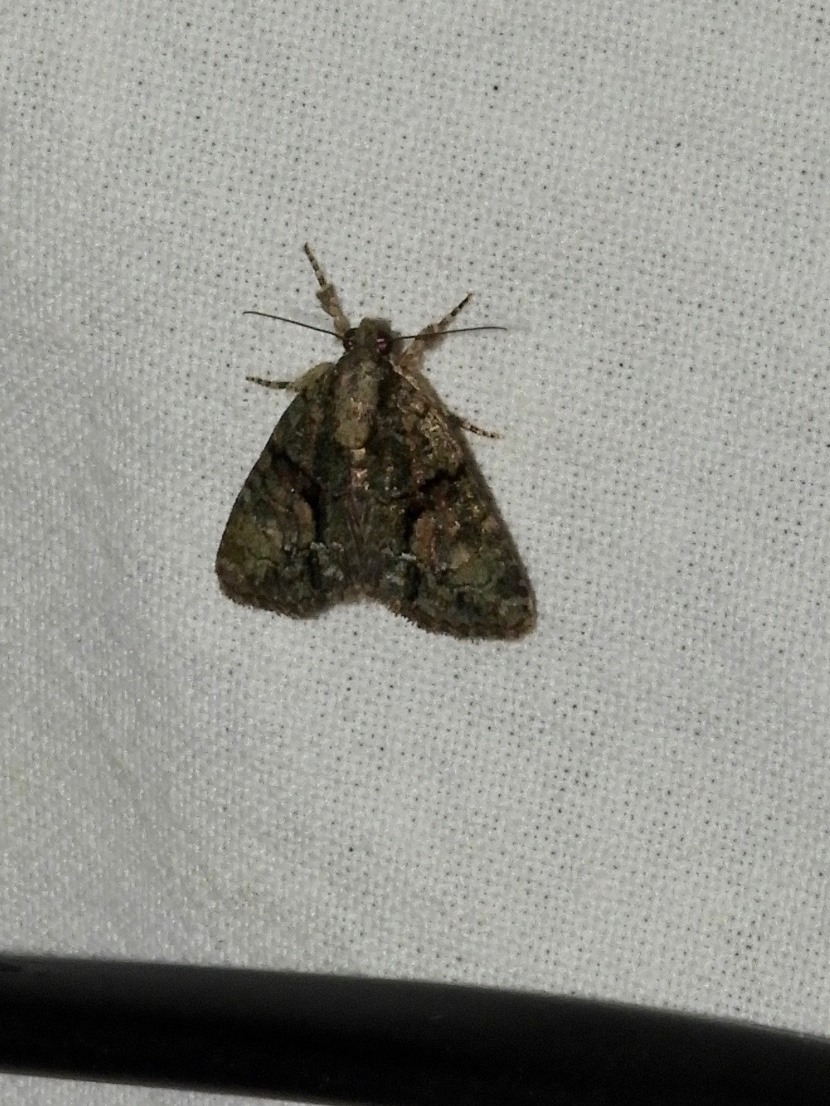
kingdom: Animalia
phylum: Arthropoda
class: Insecta
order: Lepidoptera
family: Noctuidae
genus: Cryphia
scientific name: Cryphia
